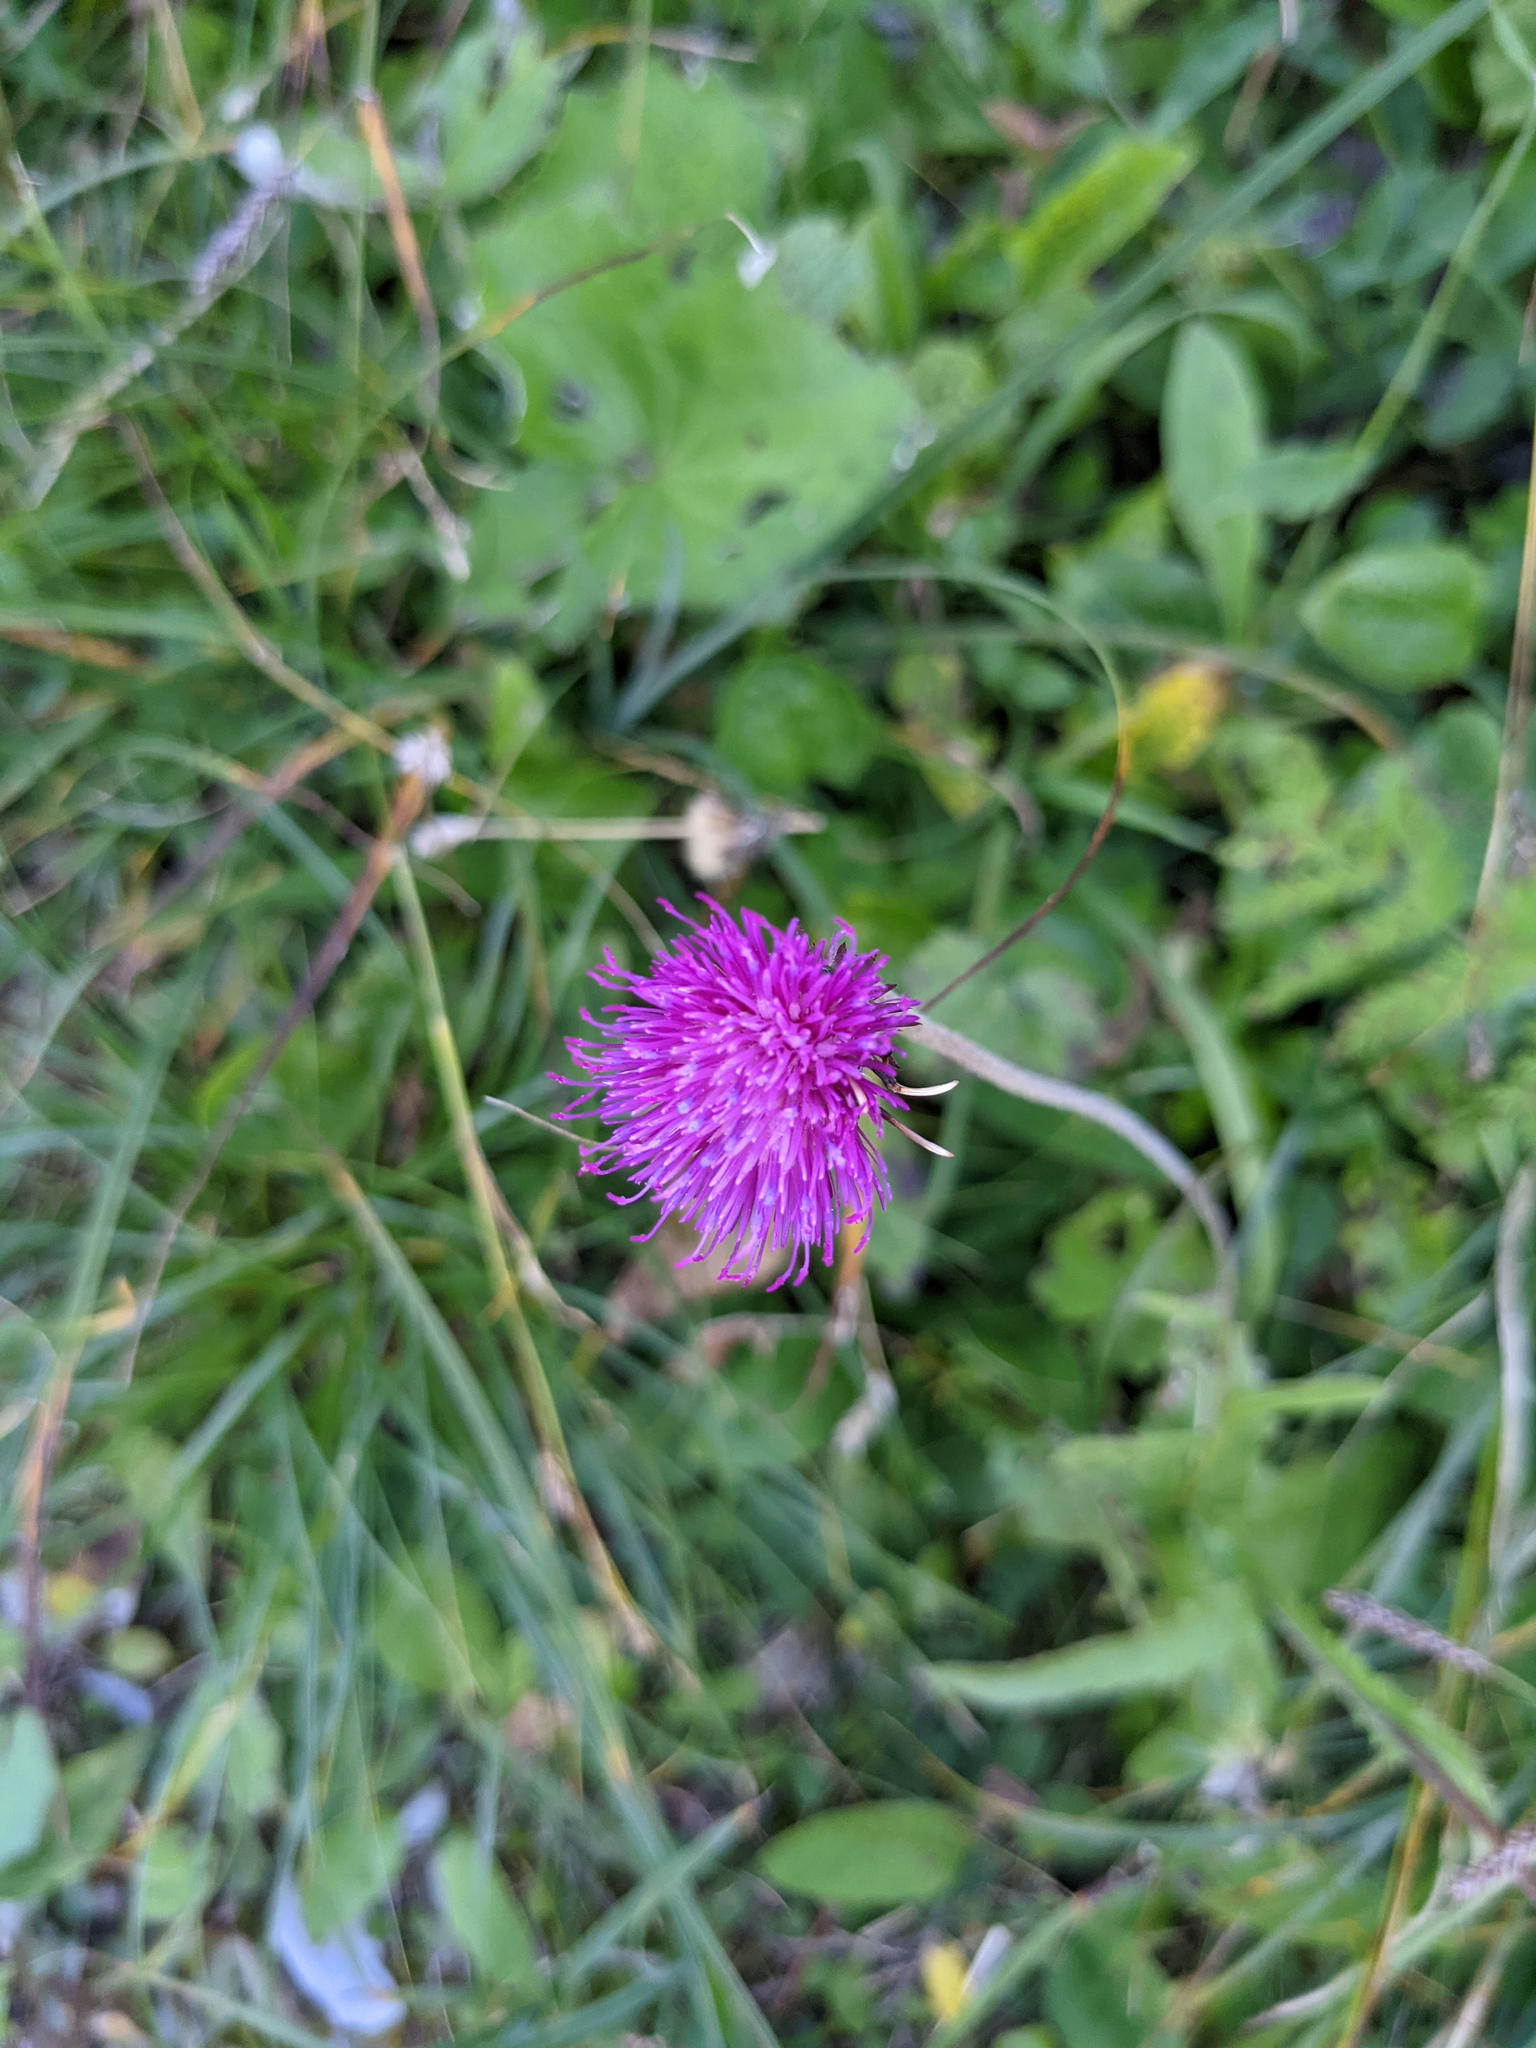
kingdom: Plantae
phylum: Tracheophyta
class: Magnoliopsida
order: Asterales
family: Asteraceae
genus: Carduus
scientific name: Carduus defloratus
